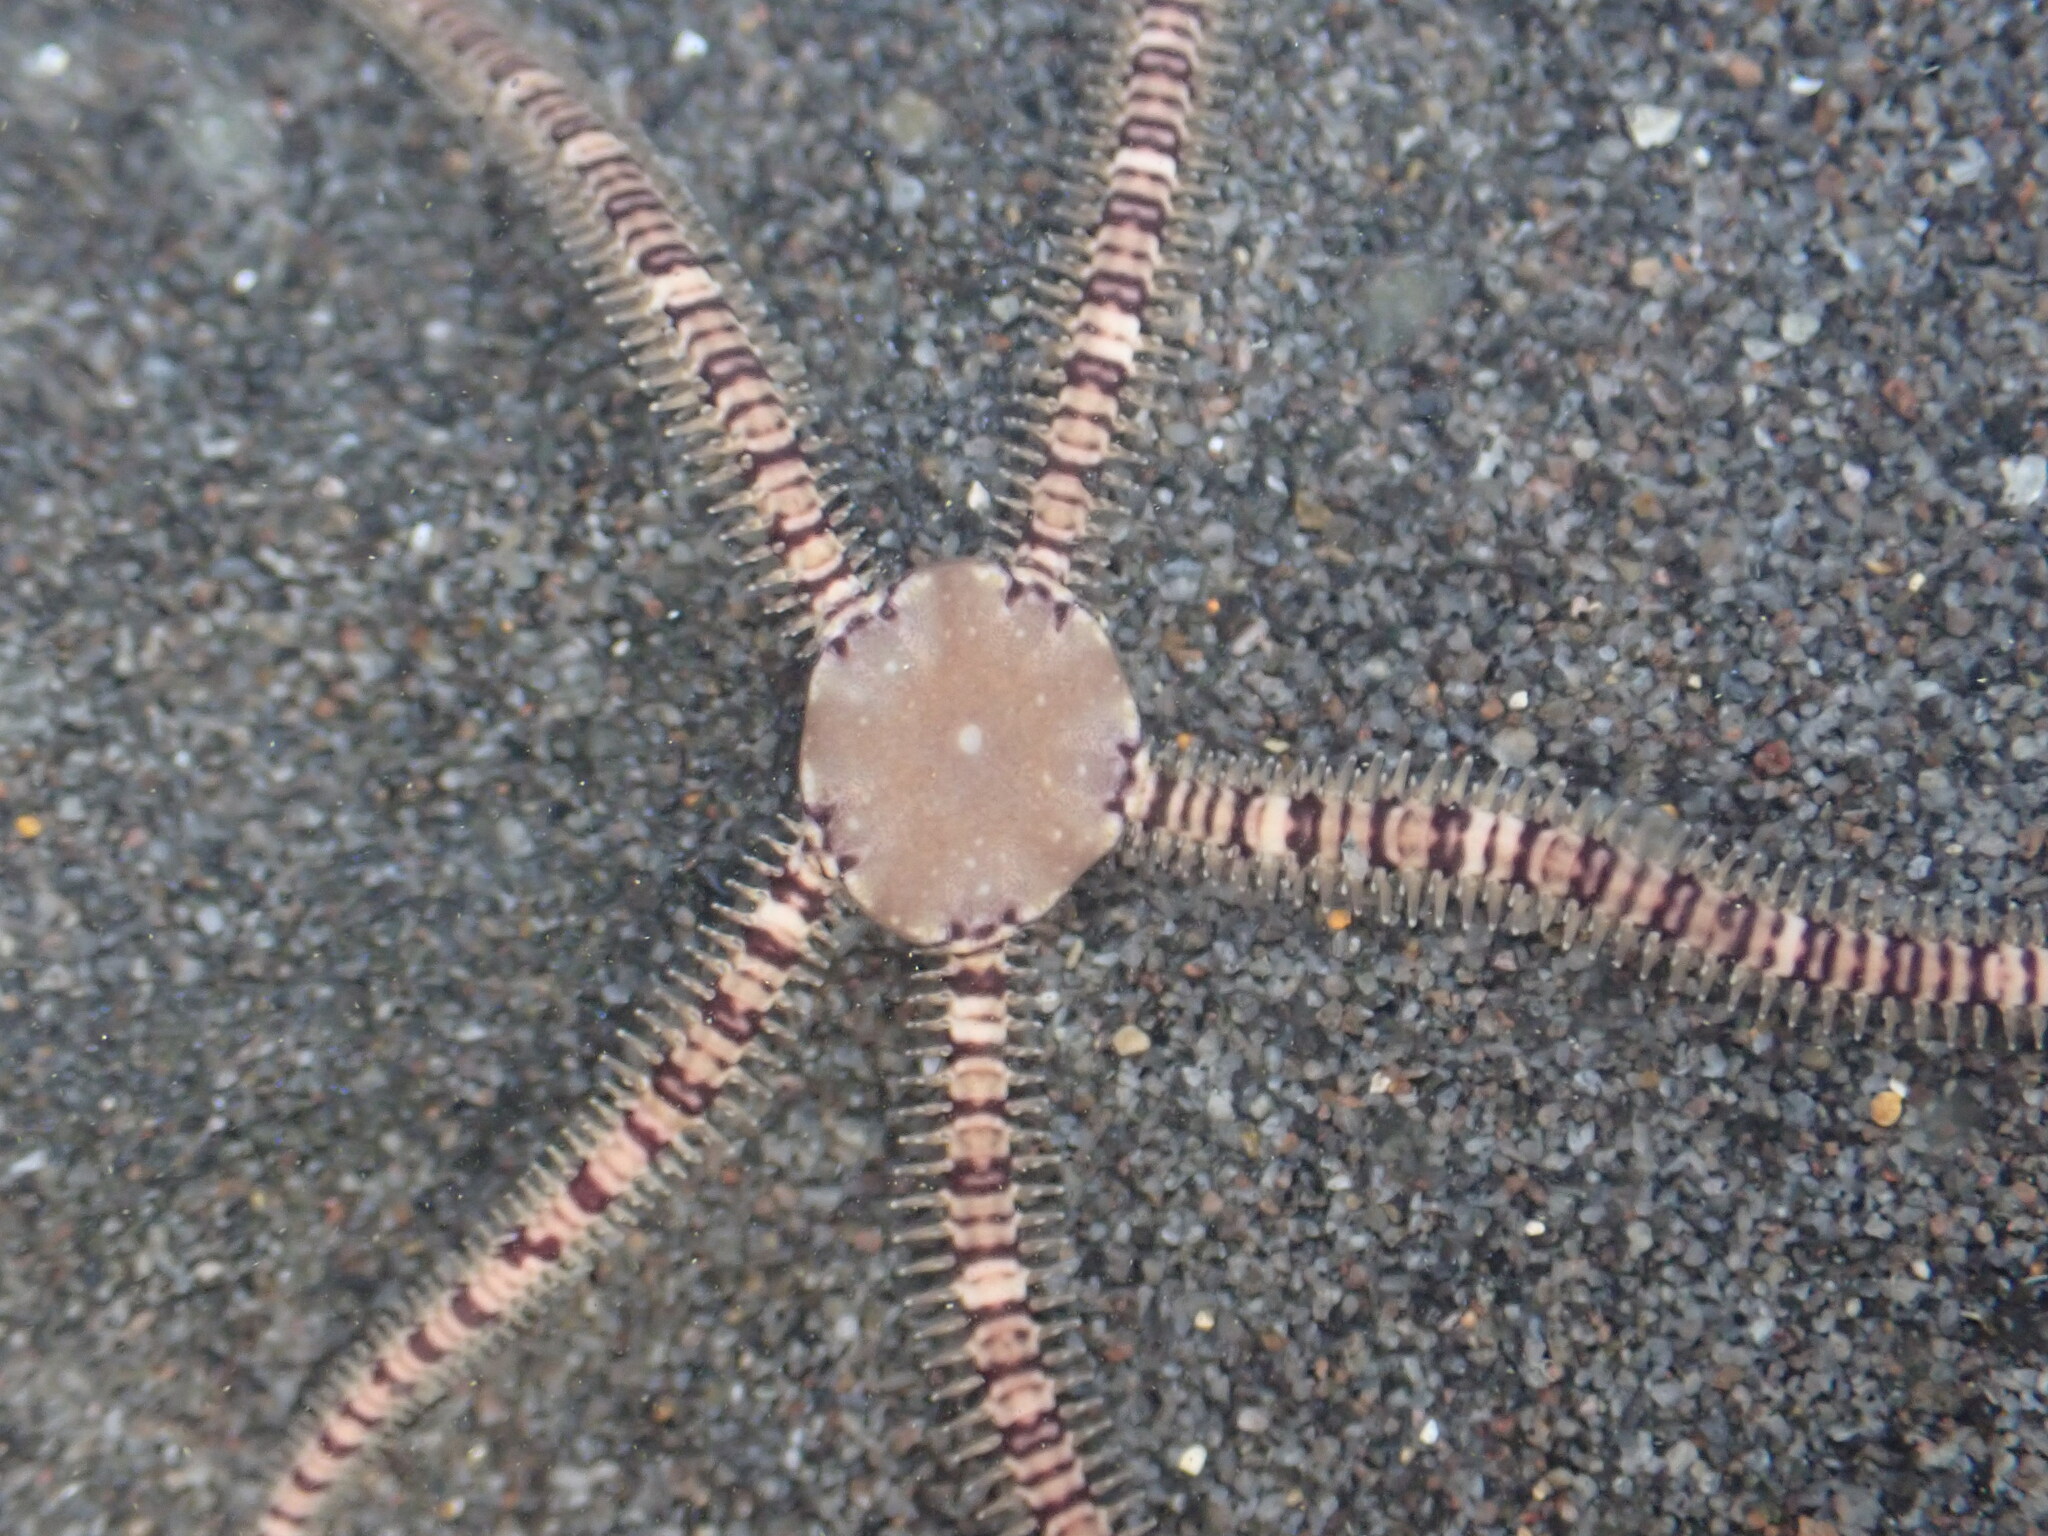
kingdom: Animalia
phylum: Echinodermata
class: Ophiuroidea
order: Amphilepidida
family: Ophionereididae
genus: Ophionereis
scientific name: Ophionereis fasciata
